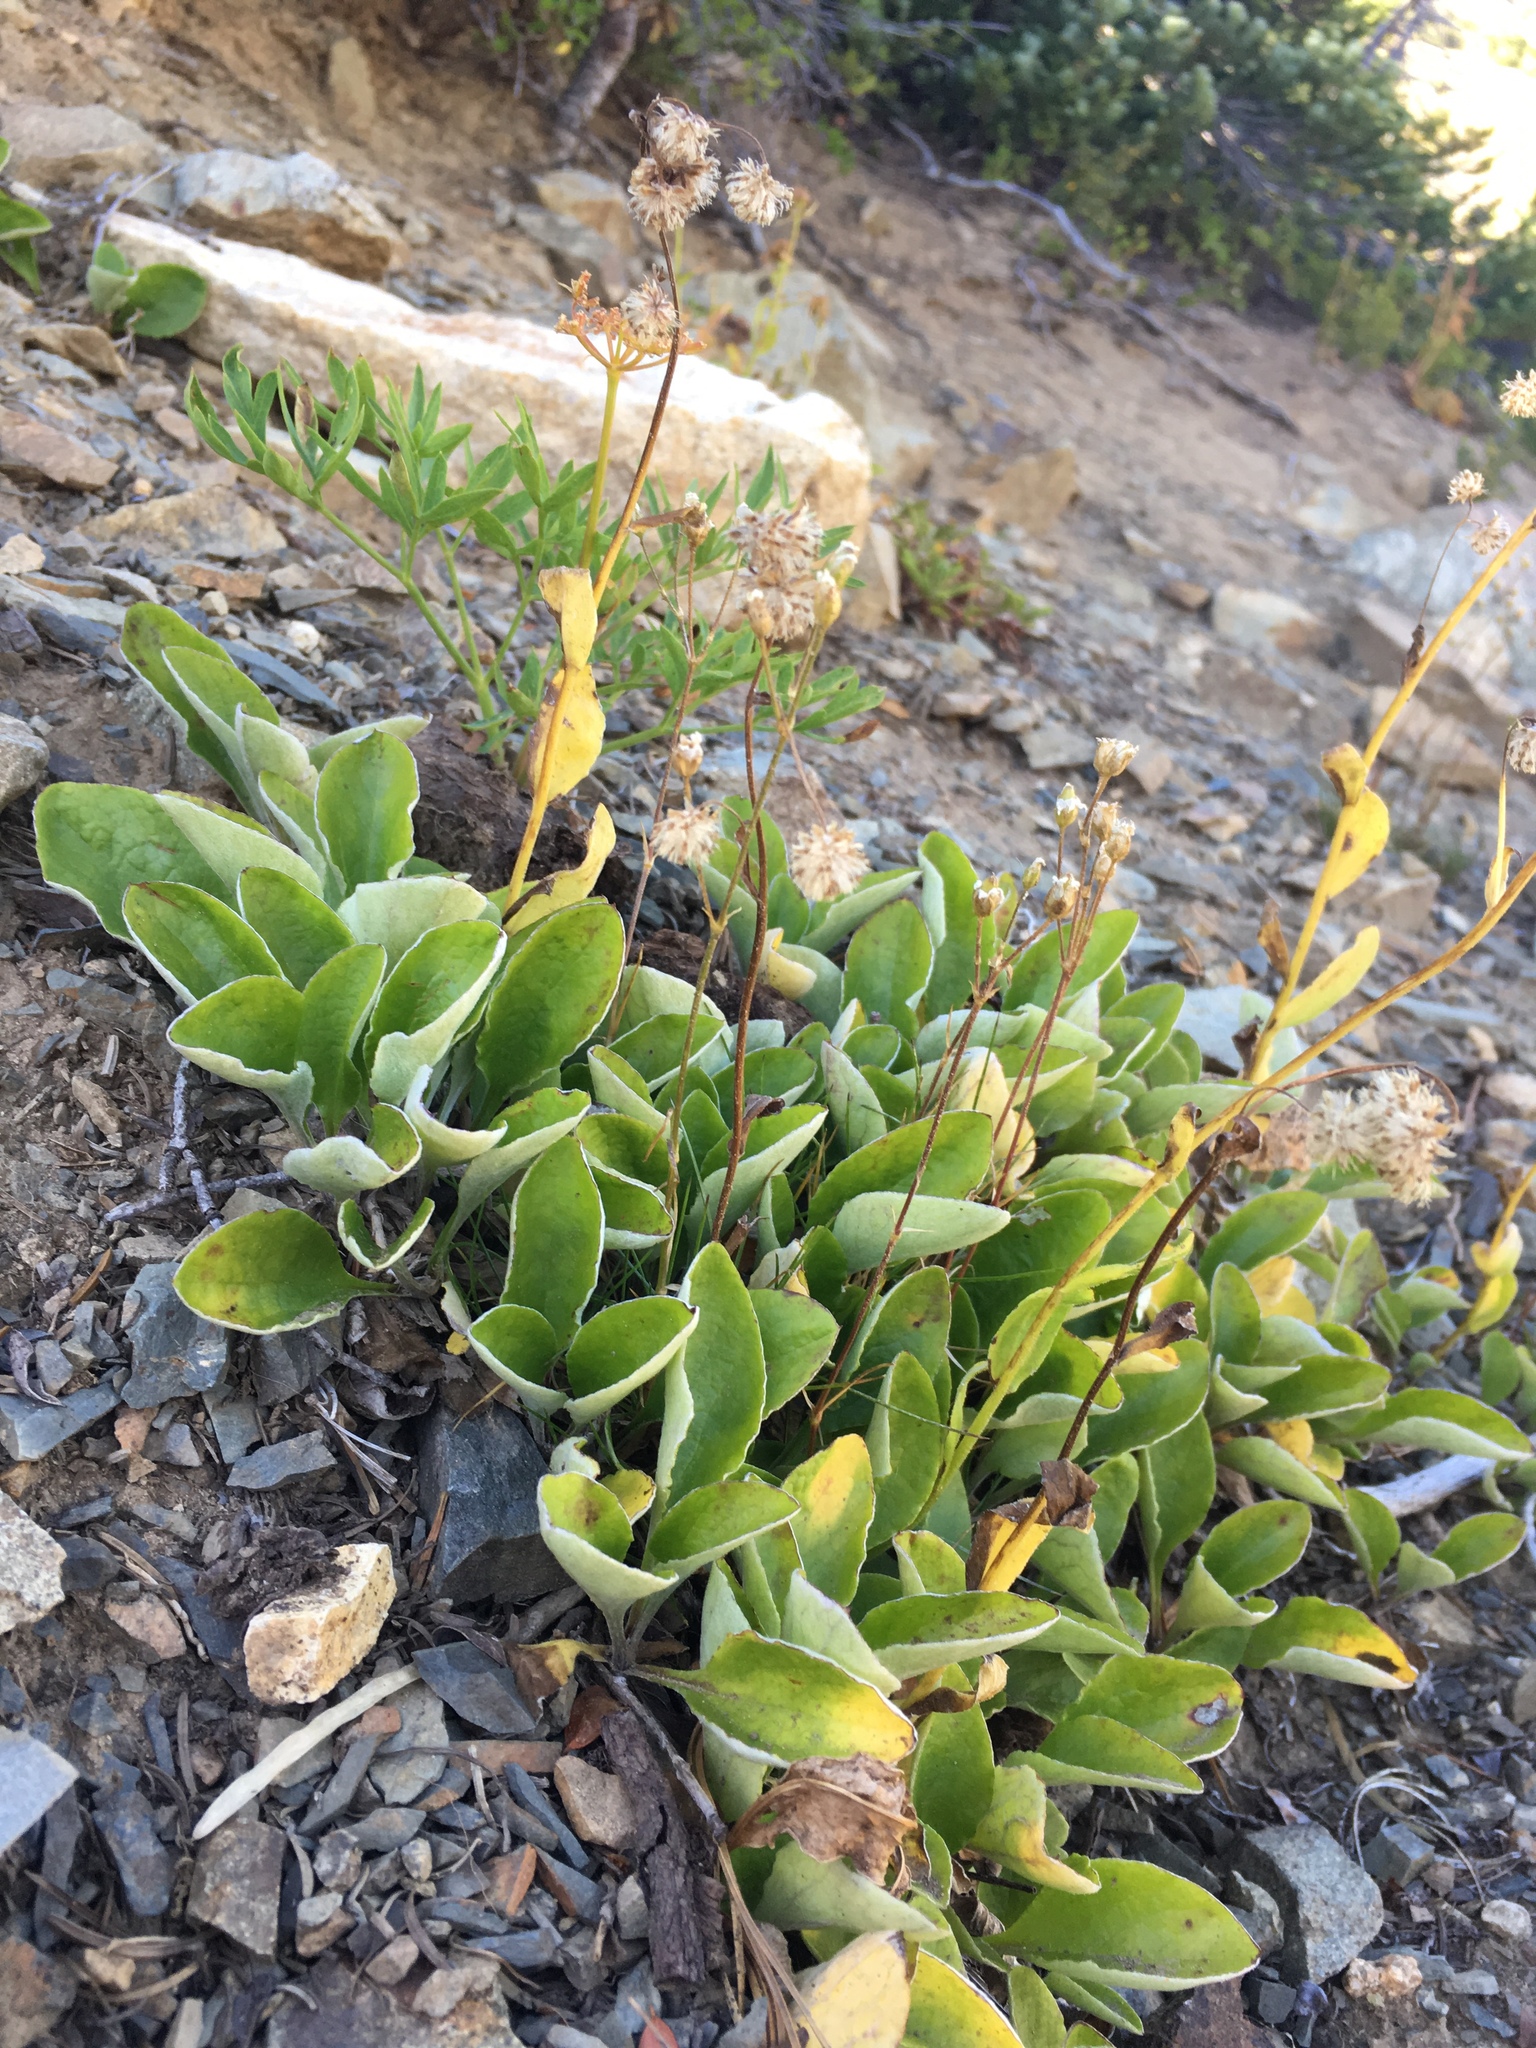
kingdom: Plantae
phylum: Tracheophyta
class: Magnoliopsida
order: Asterales
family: Asteraceae
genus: Antennaria
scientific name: Antennaria racemosa
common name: Racemose pussytoes
